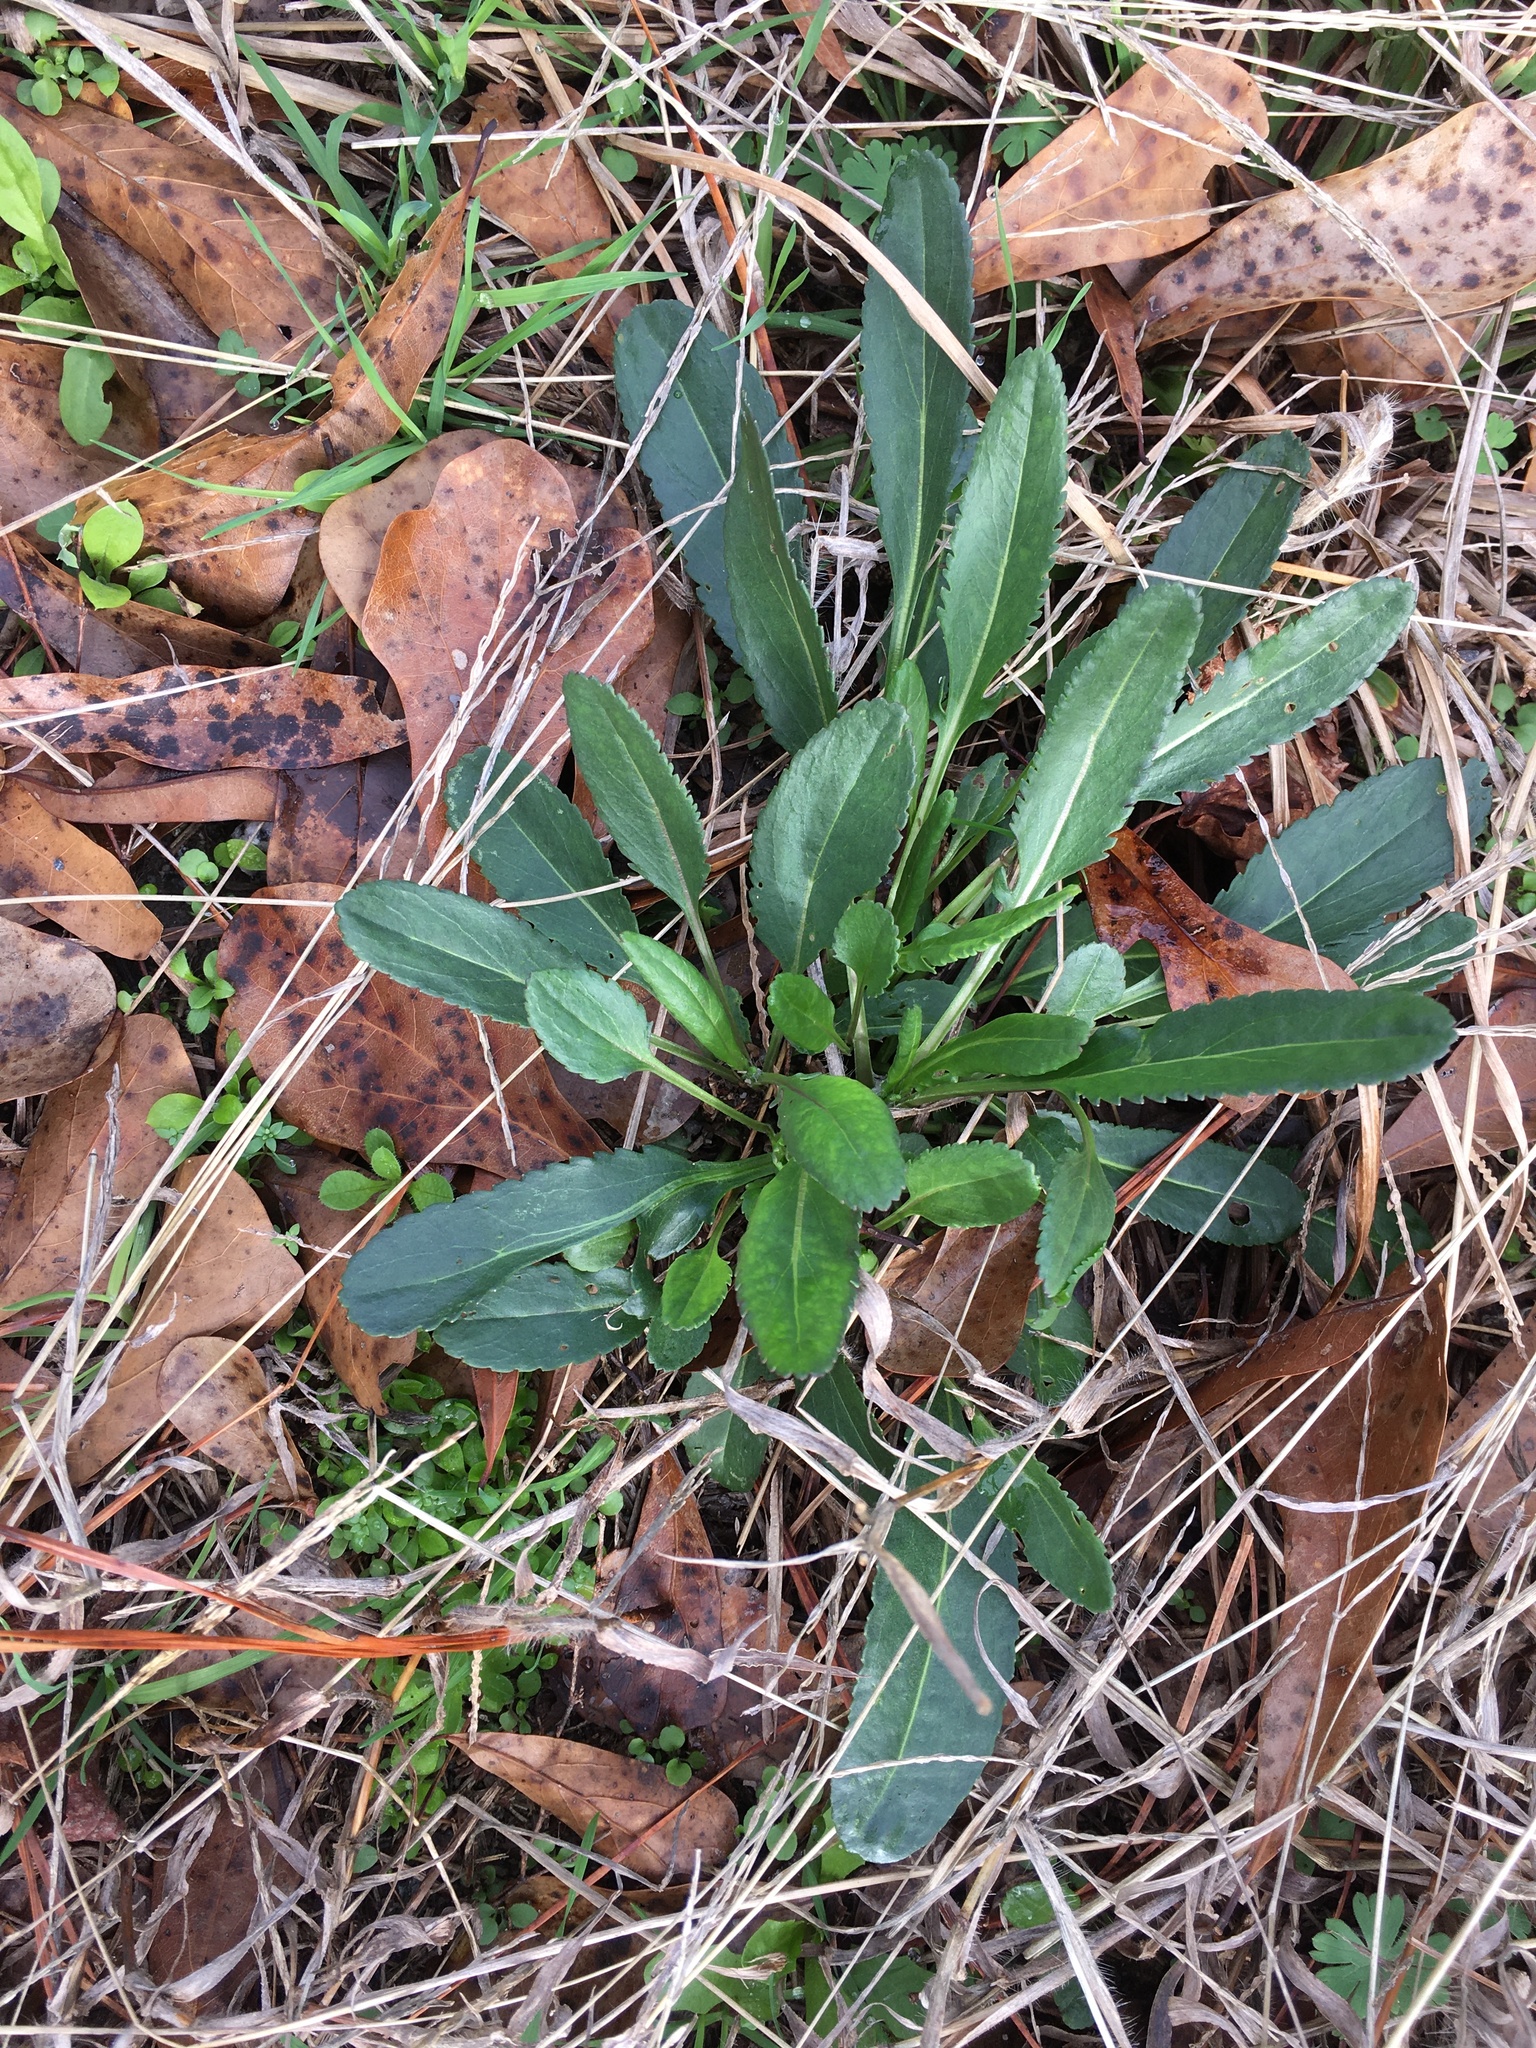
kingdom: Plantae
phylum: Tracheophyta
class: Magnoliopsida
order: Asterales
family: Asteraceae
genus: Packera
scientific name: Packera anonyma
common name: Small ragwort
